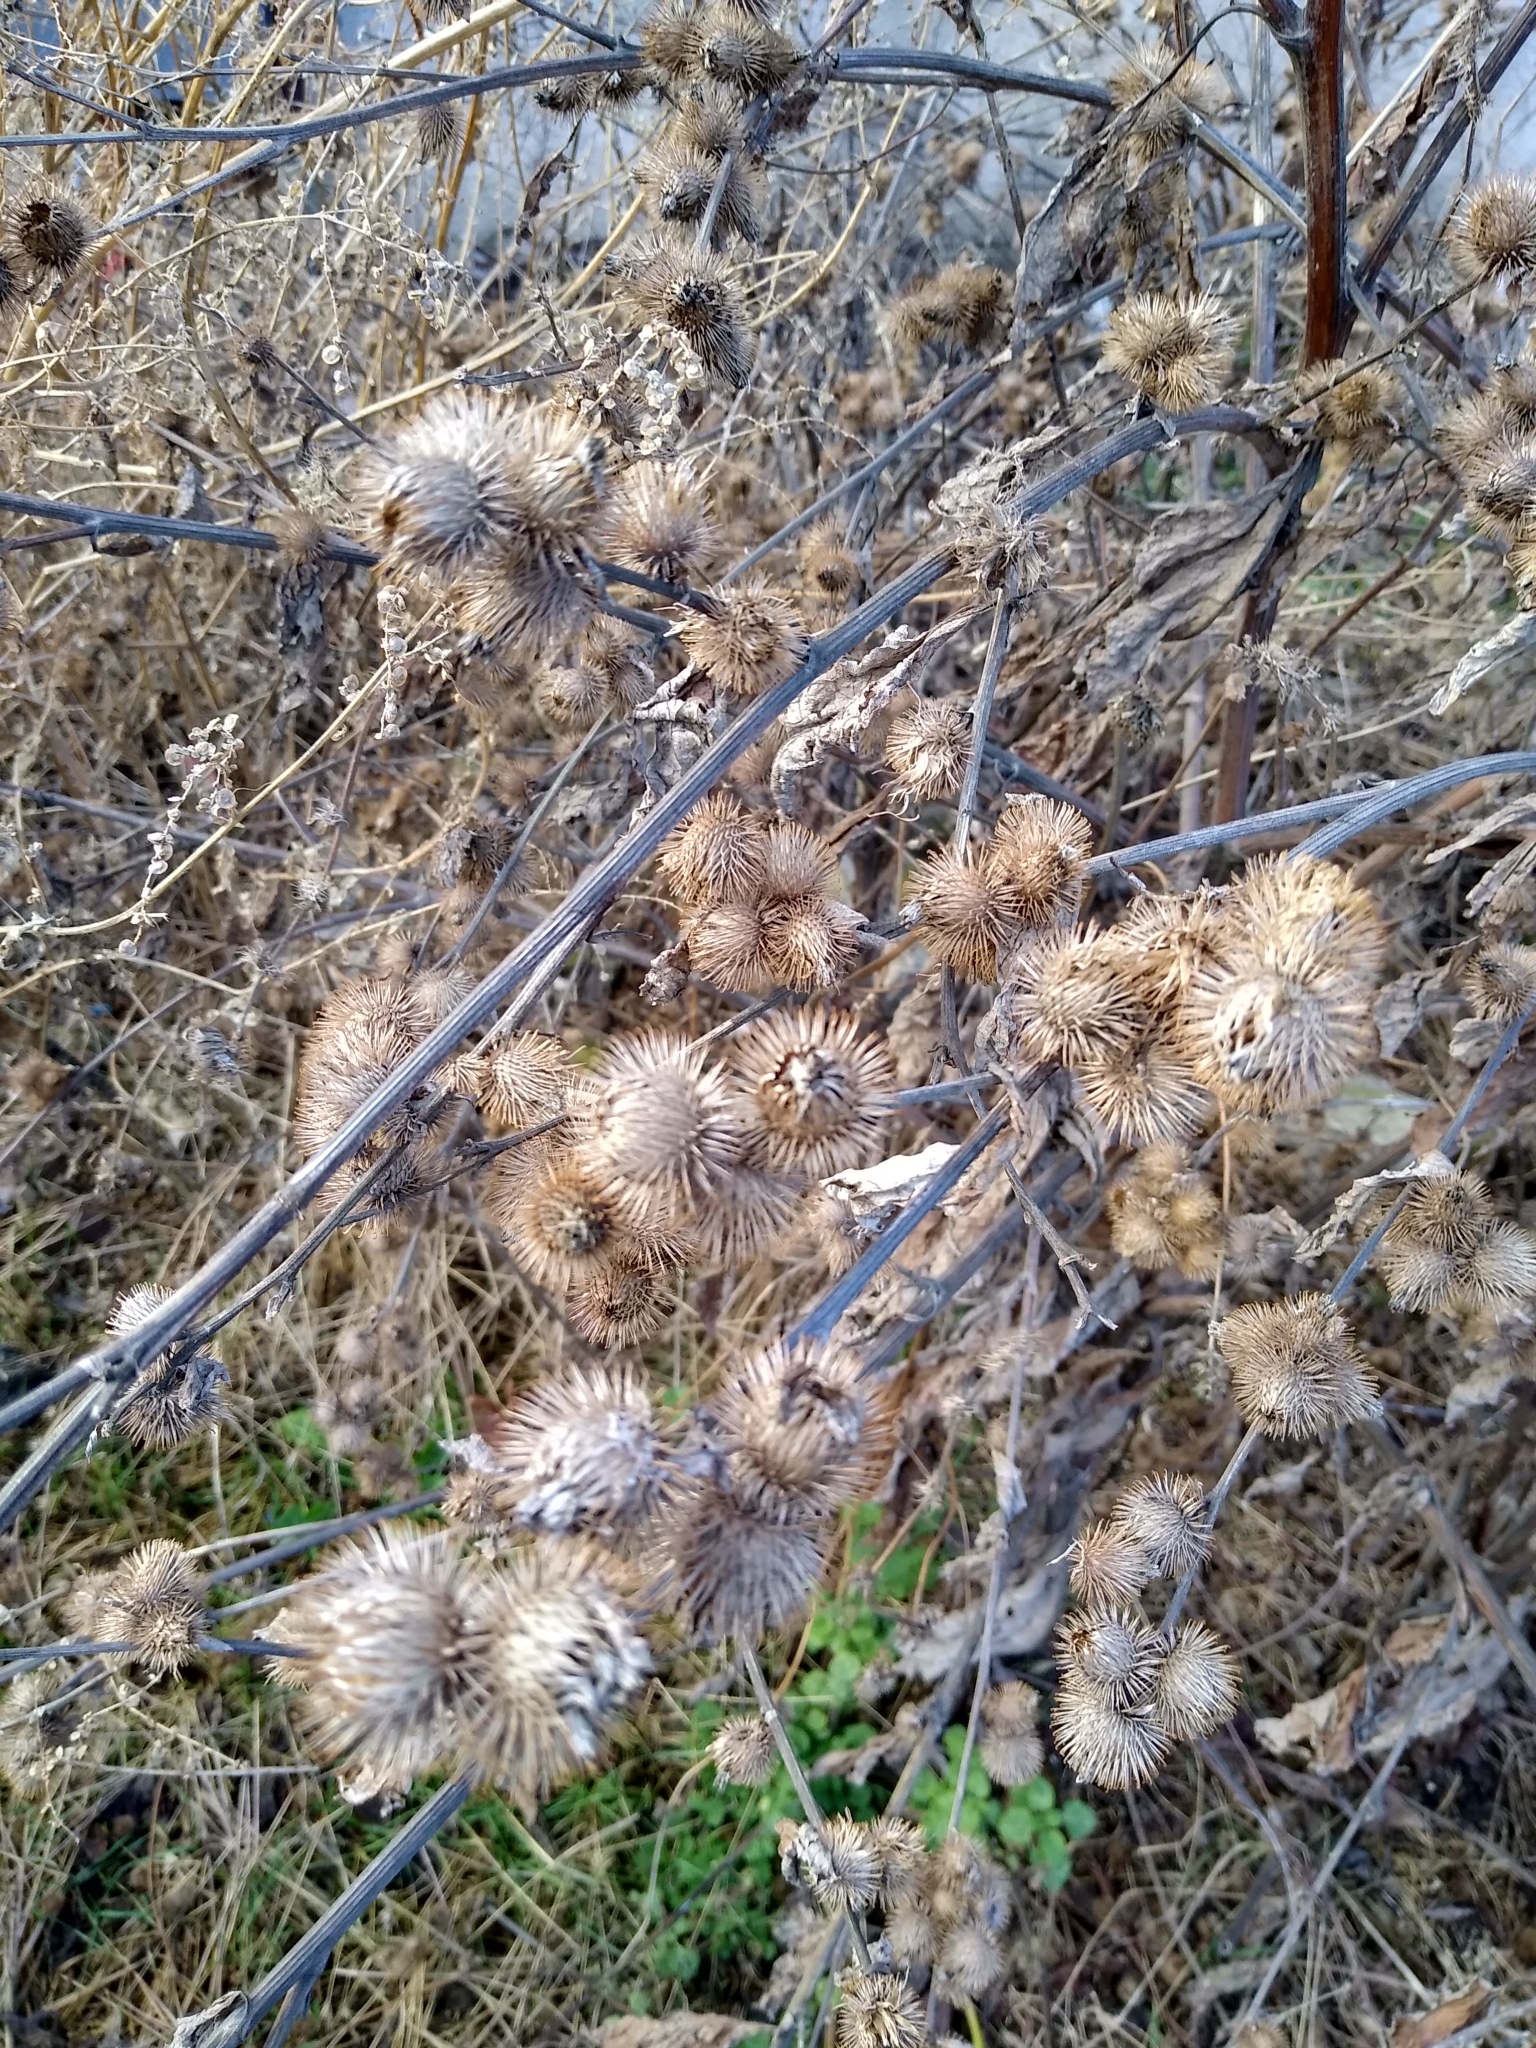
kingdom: Plantae
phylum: Tracheophyta
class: Magnoliopsida
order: Asterales
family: Asteraceae
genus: Arctium
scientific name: Arctium nothum
